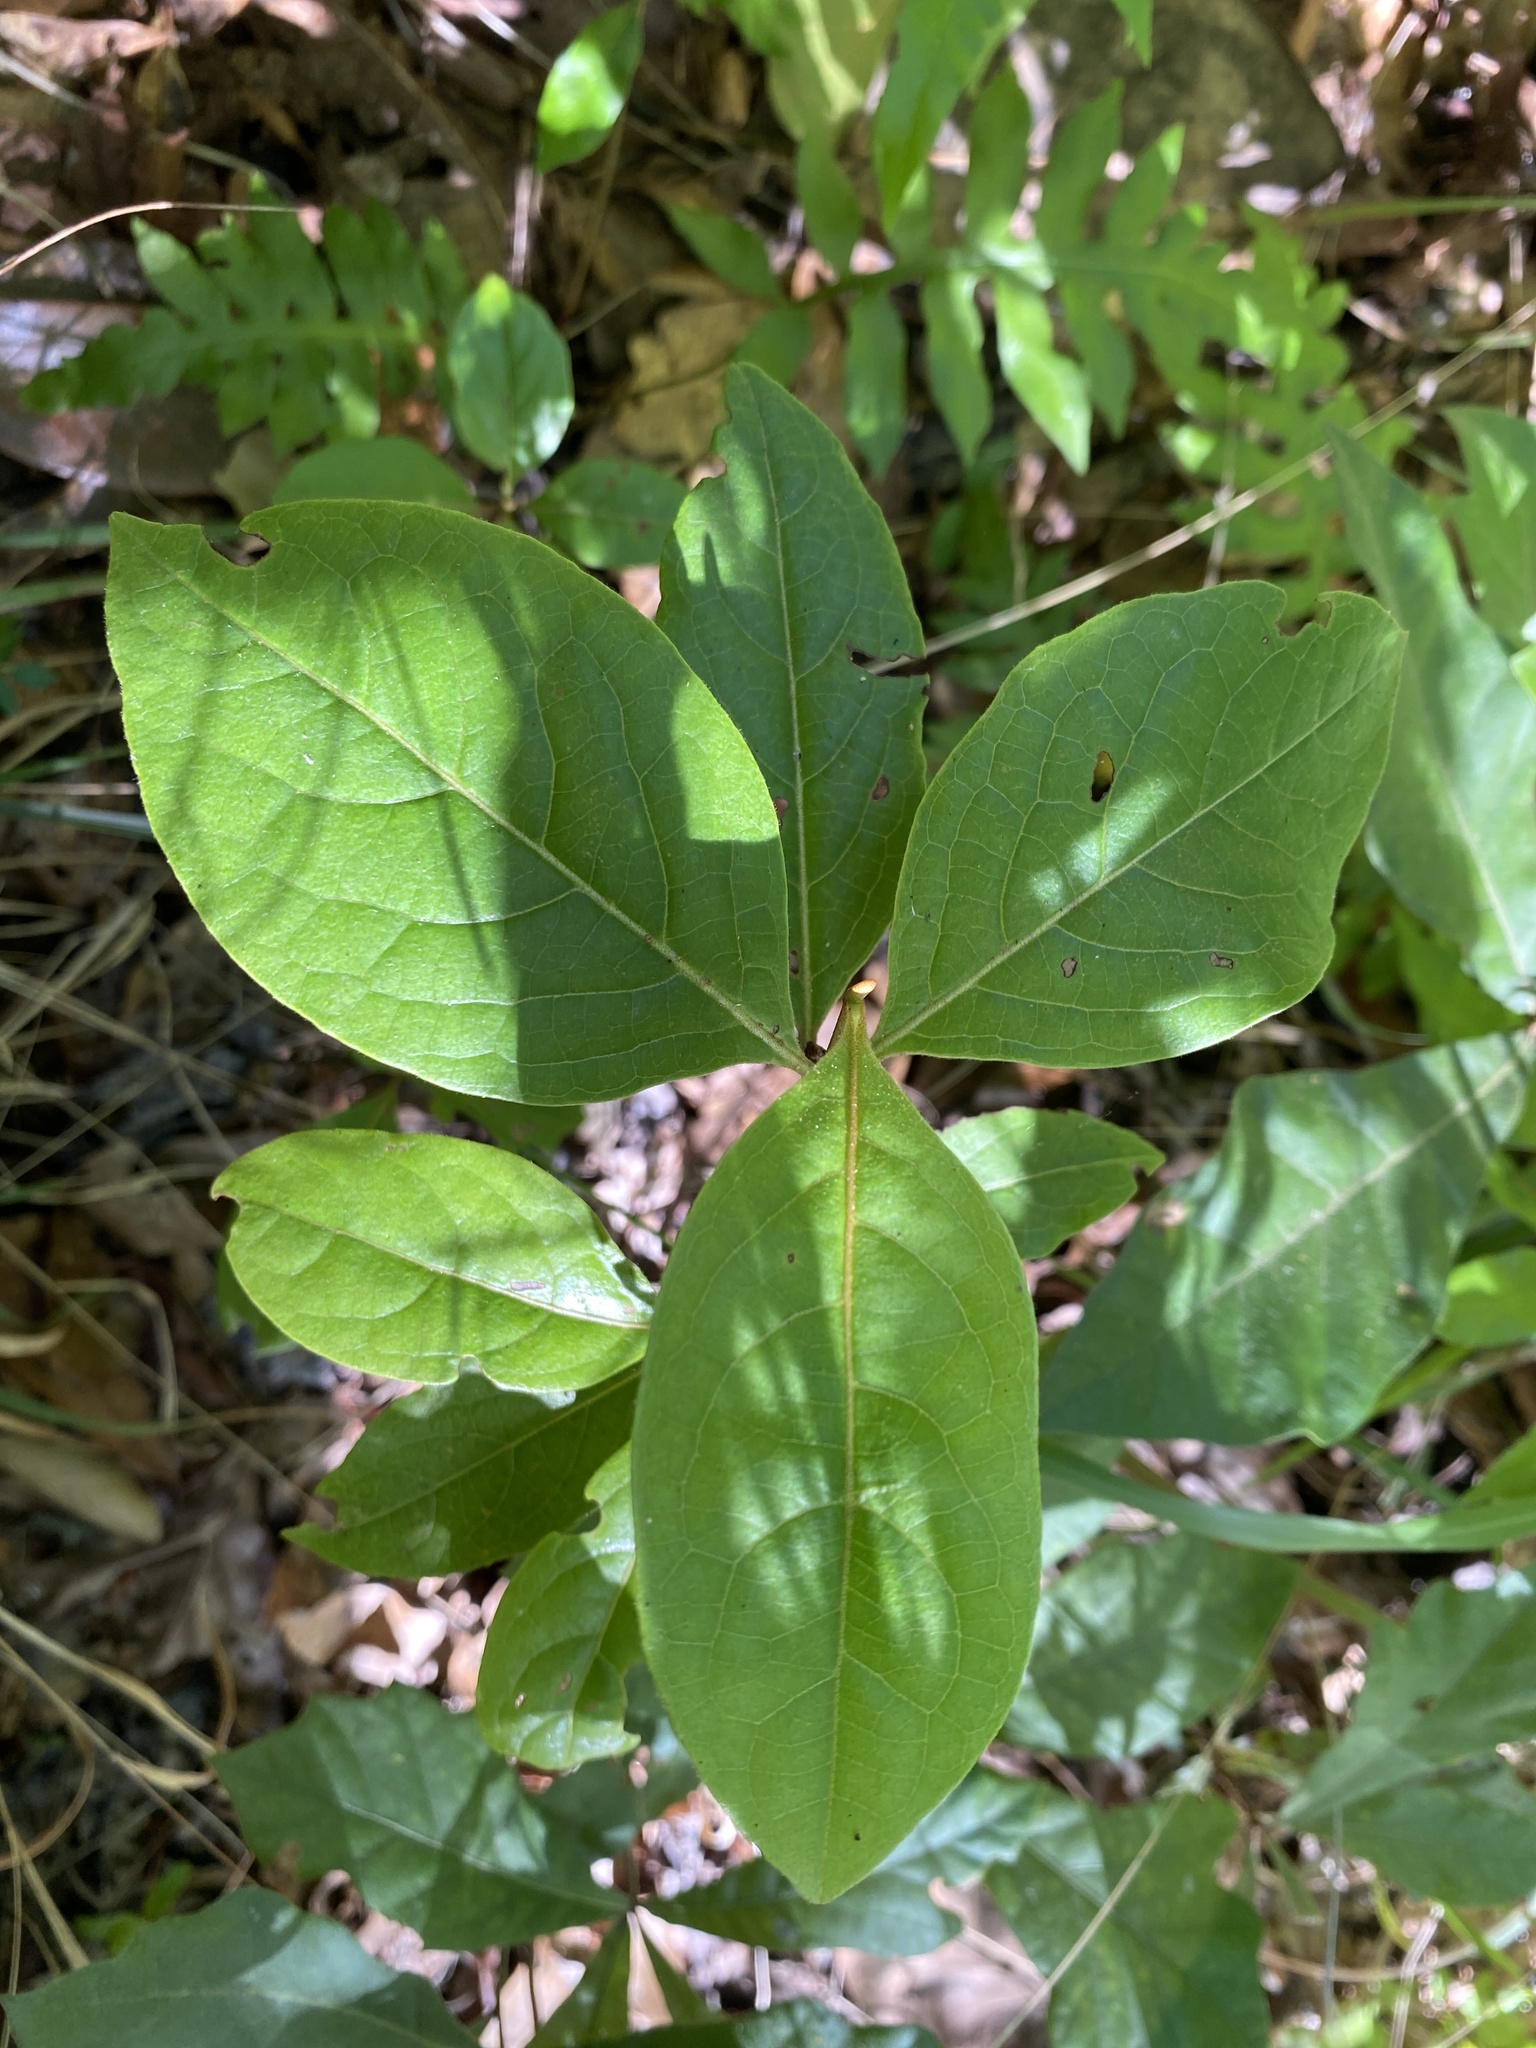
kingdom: Plantae
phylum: Tracheophyta
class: Magnoliopsida
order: Dipsacales
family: Viburnaceae
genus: Viburnum
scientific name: Viburnum nudum
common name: Possum haw
